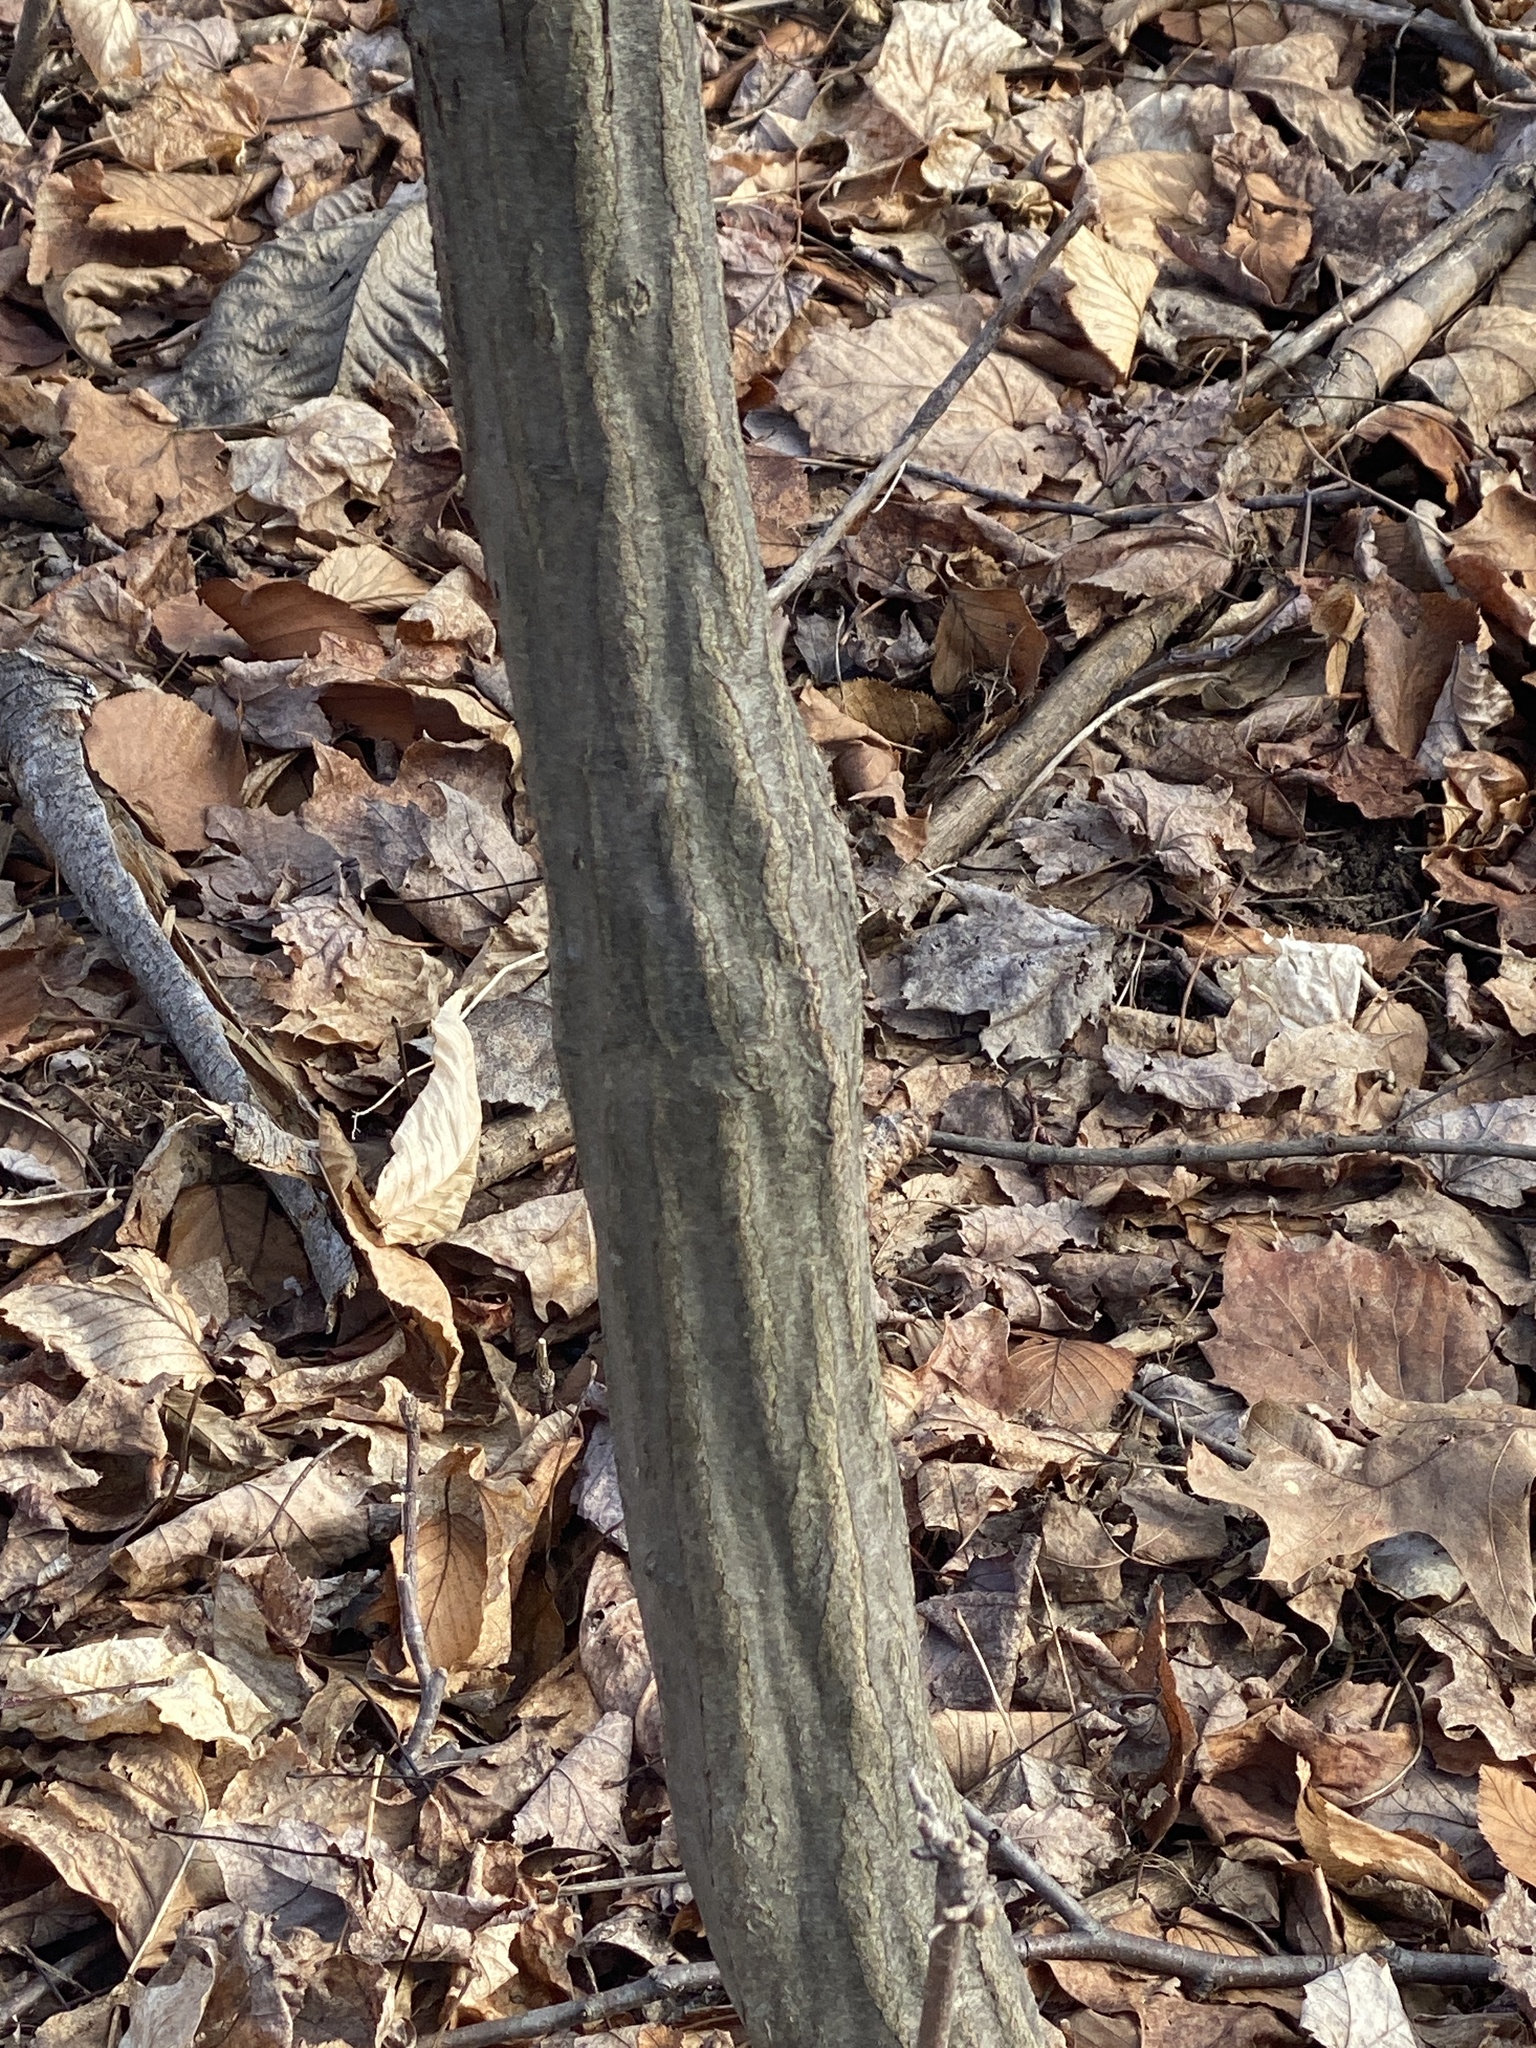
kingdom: Plantae
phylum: Tracheophyta
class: Magnoliopsida
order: Fagales
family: Betulaceae
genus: Carpinus
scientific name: Carpinus caroliniana
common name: American hornbeam
